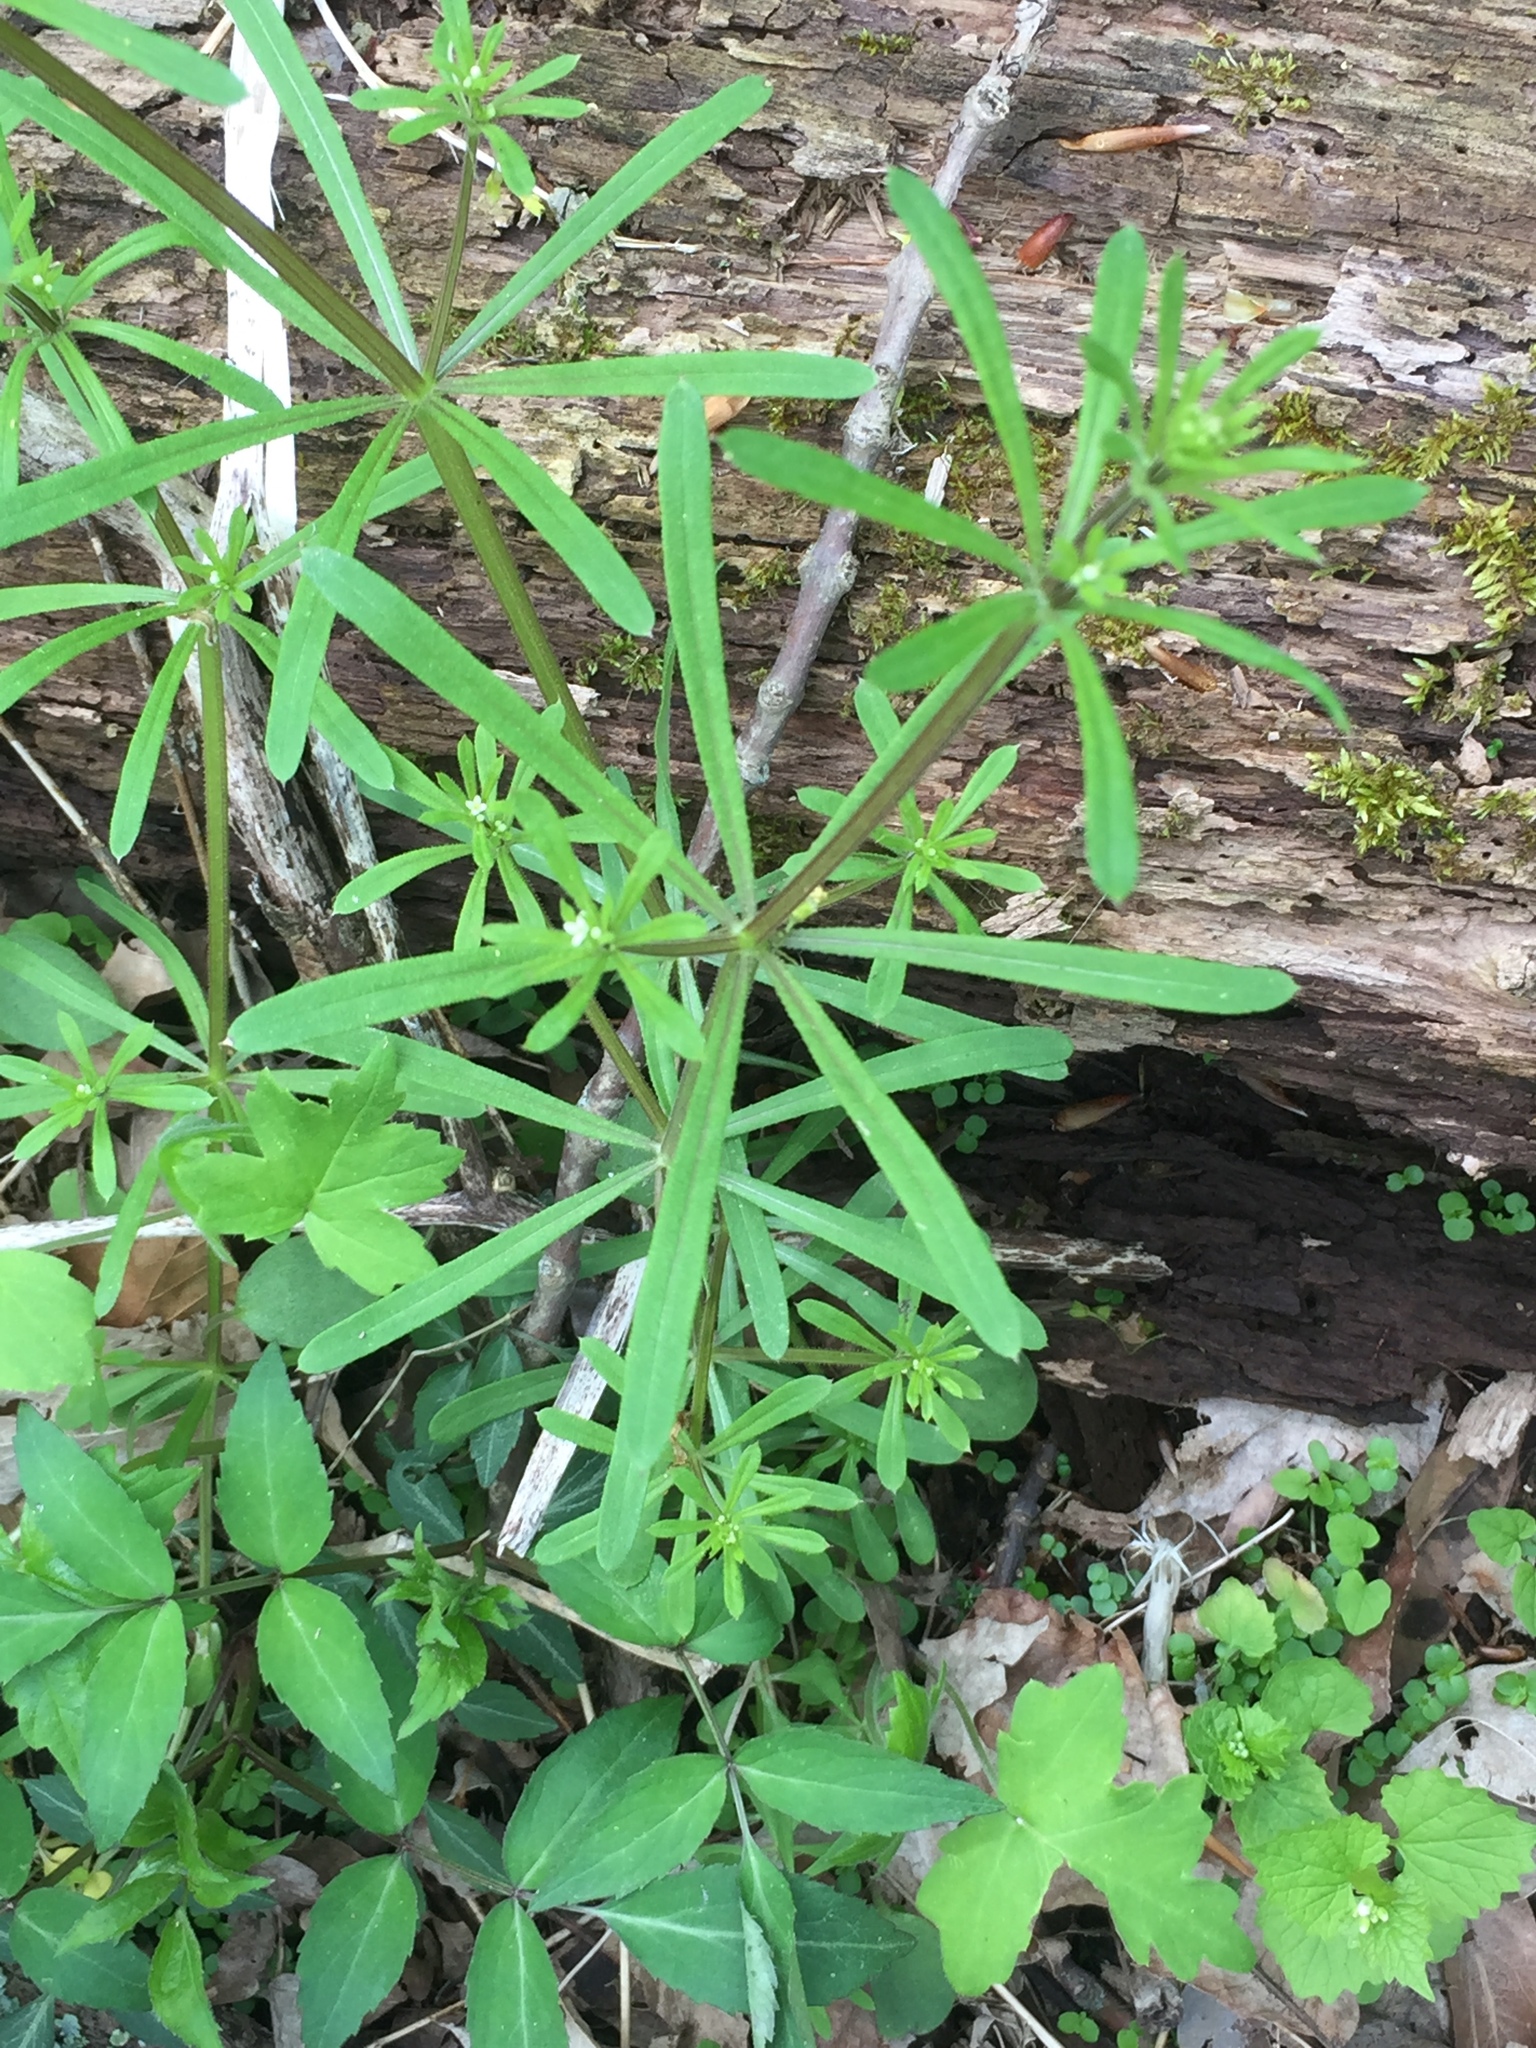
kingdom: Plantae
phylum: Tracheophyta
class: Magnoliopsida
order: Gentianales
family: Rubiaceae
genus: Galium
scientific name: Galium aparine
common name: Cleavers
